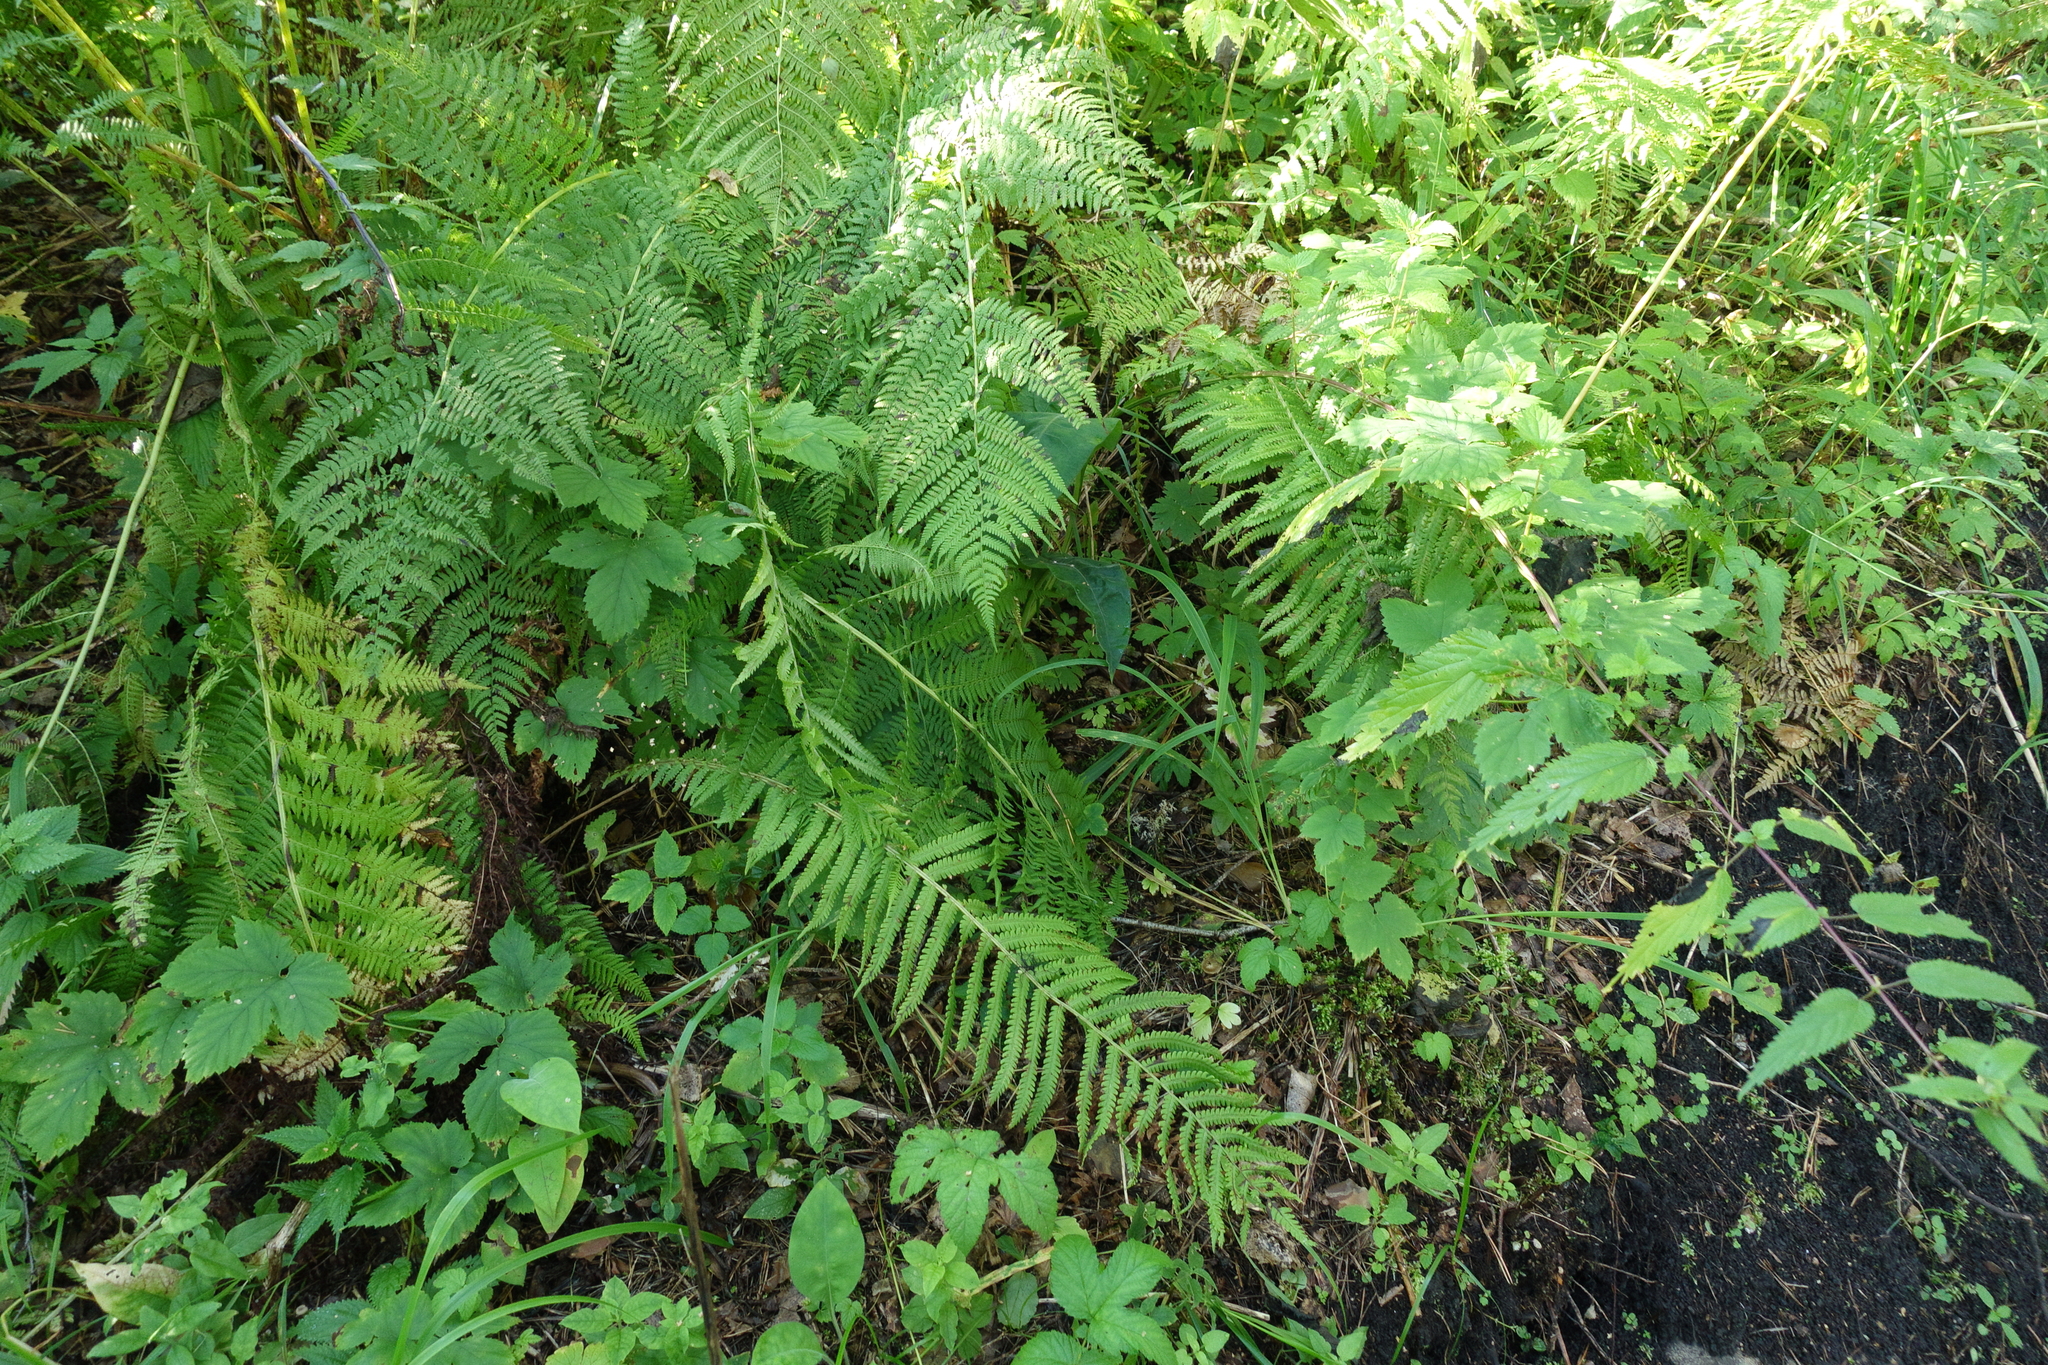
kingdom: Plantae
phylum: Tracheophyta
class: Polypodiopsida
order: Polypodiales
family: Onocleaceae
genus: Matteuccia
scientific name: Matteuccia struthiopteris
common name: Ostrich fern
